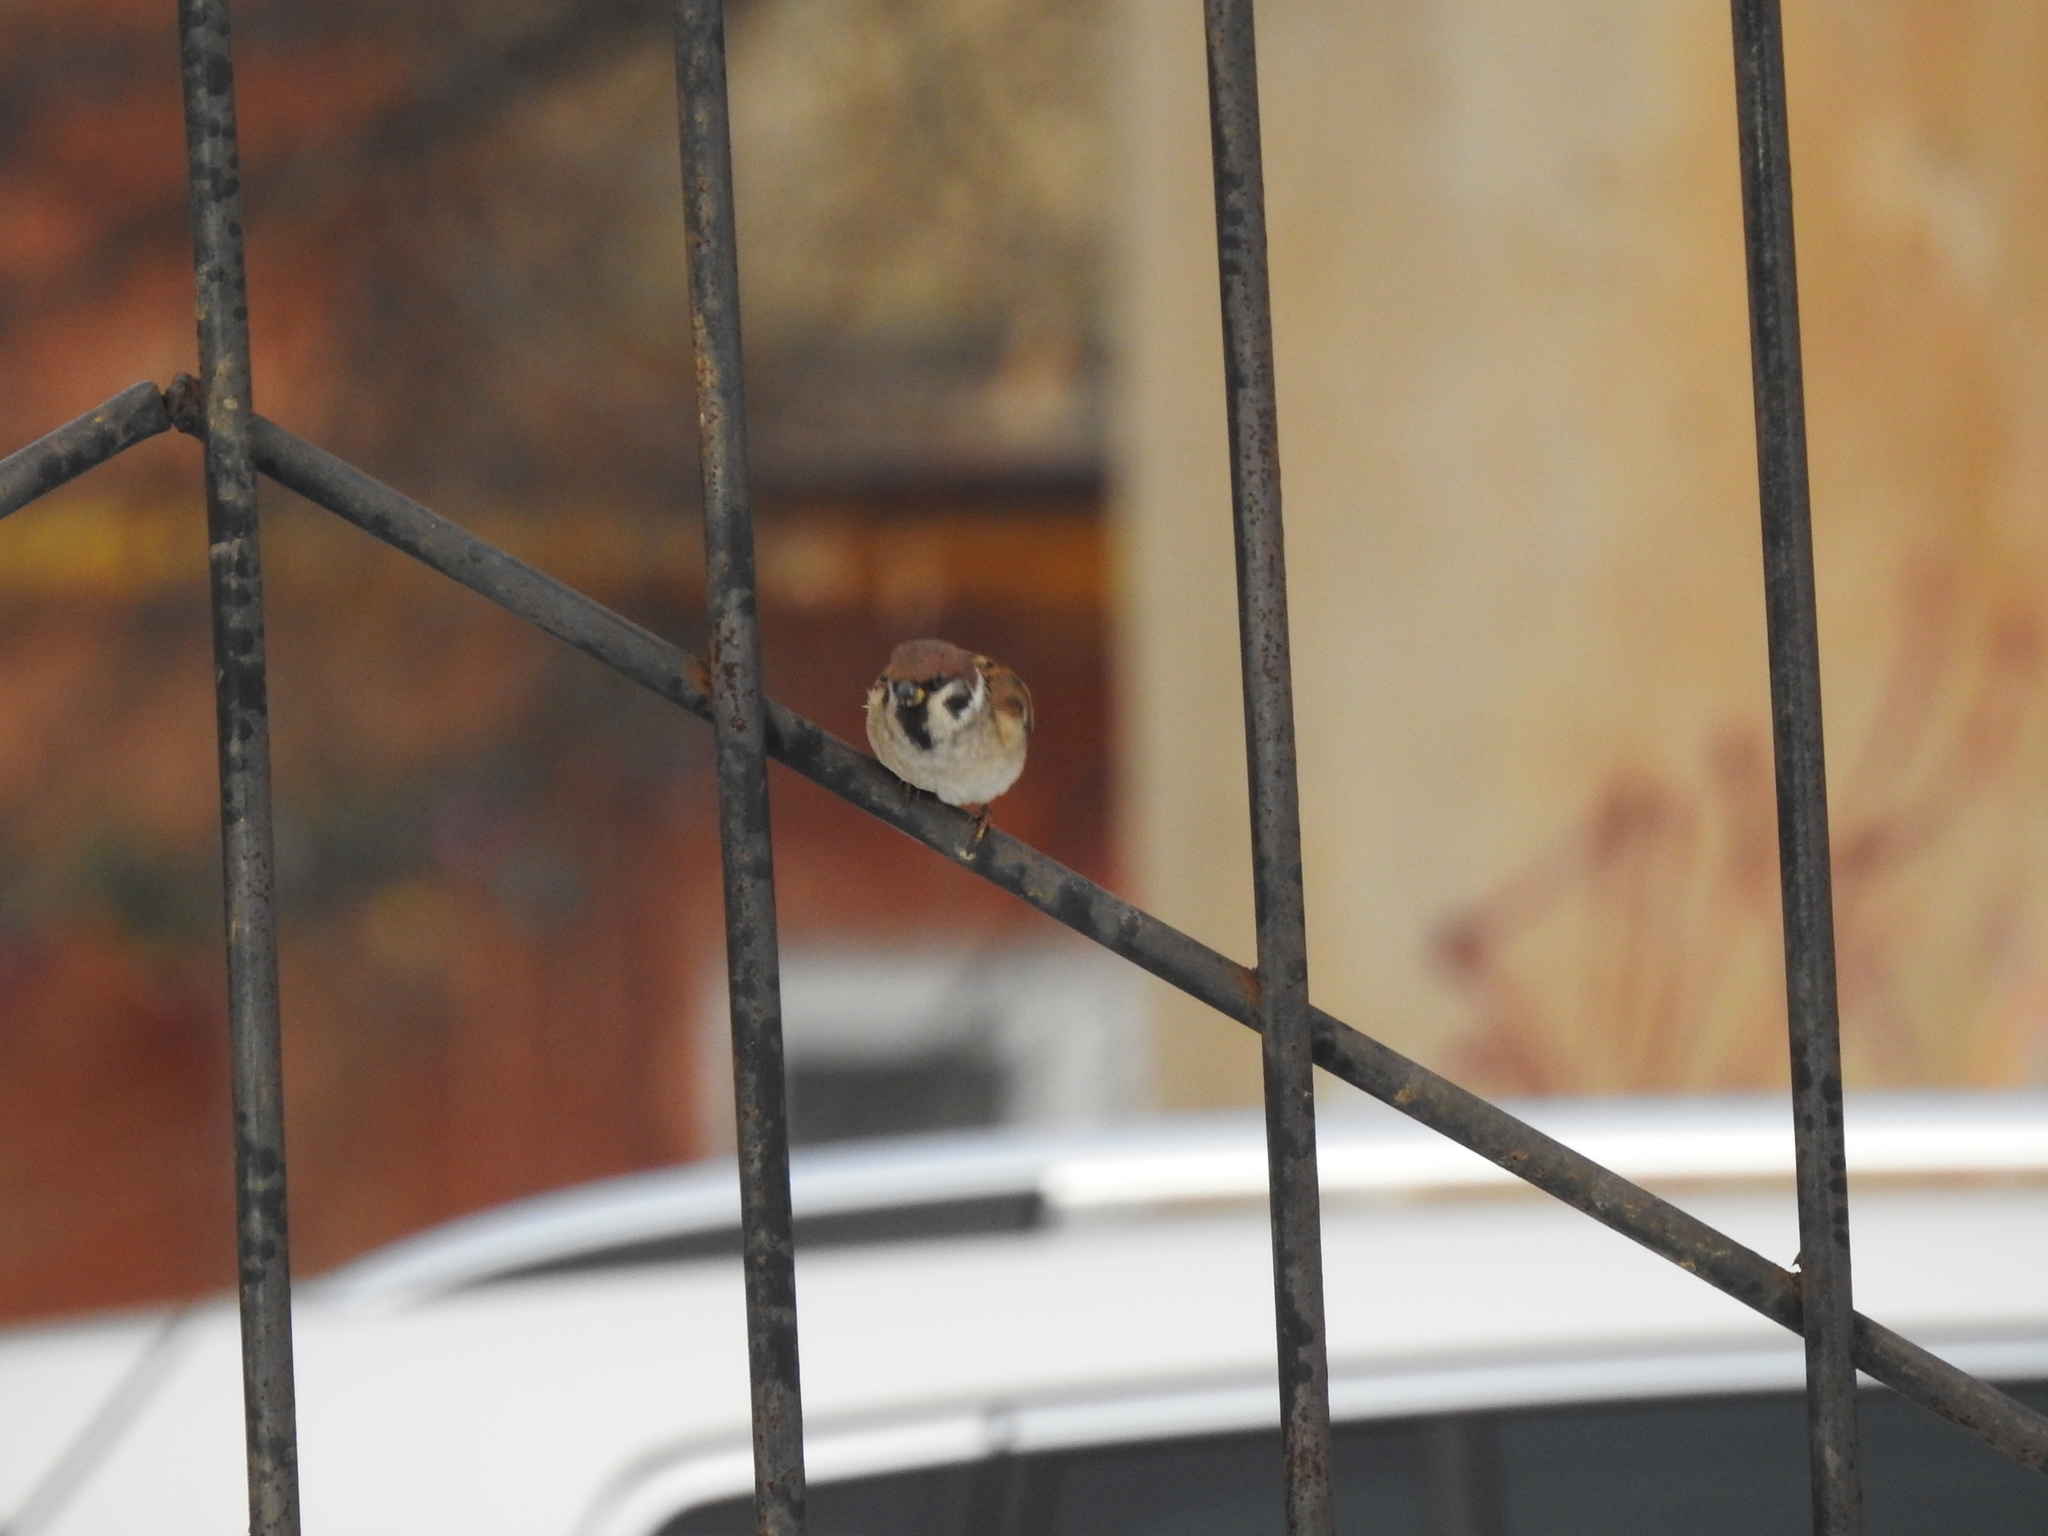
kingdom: Animalia
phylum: Chordata
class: Aves
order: Passeriformes
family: Passeridae
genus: Passer
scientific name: Passer montanus
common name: Eurasian tree sparrow
